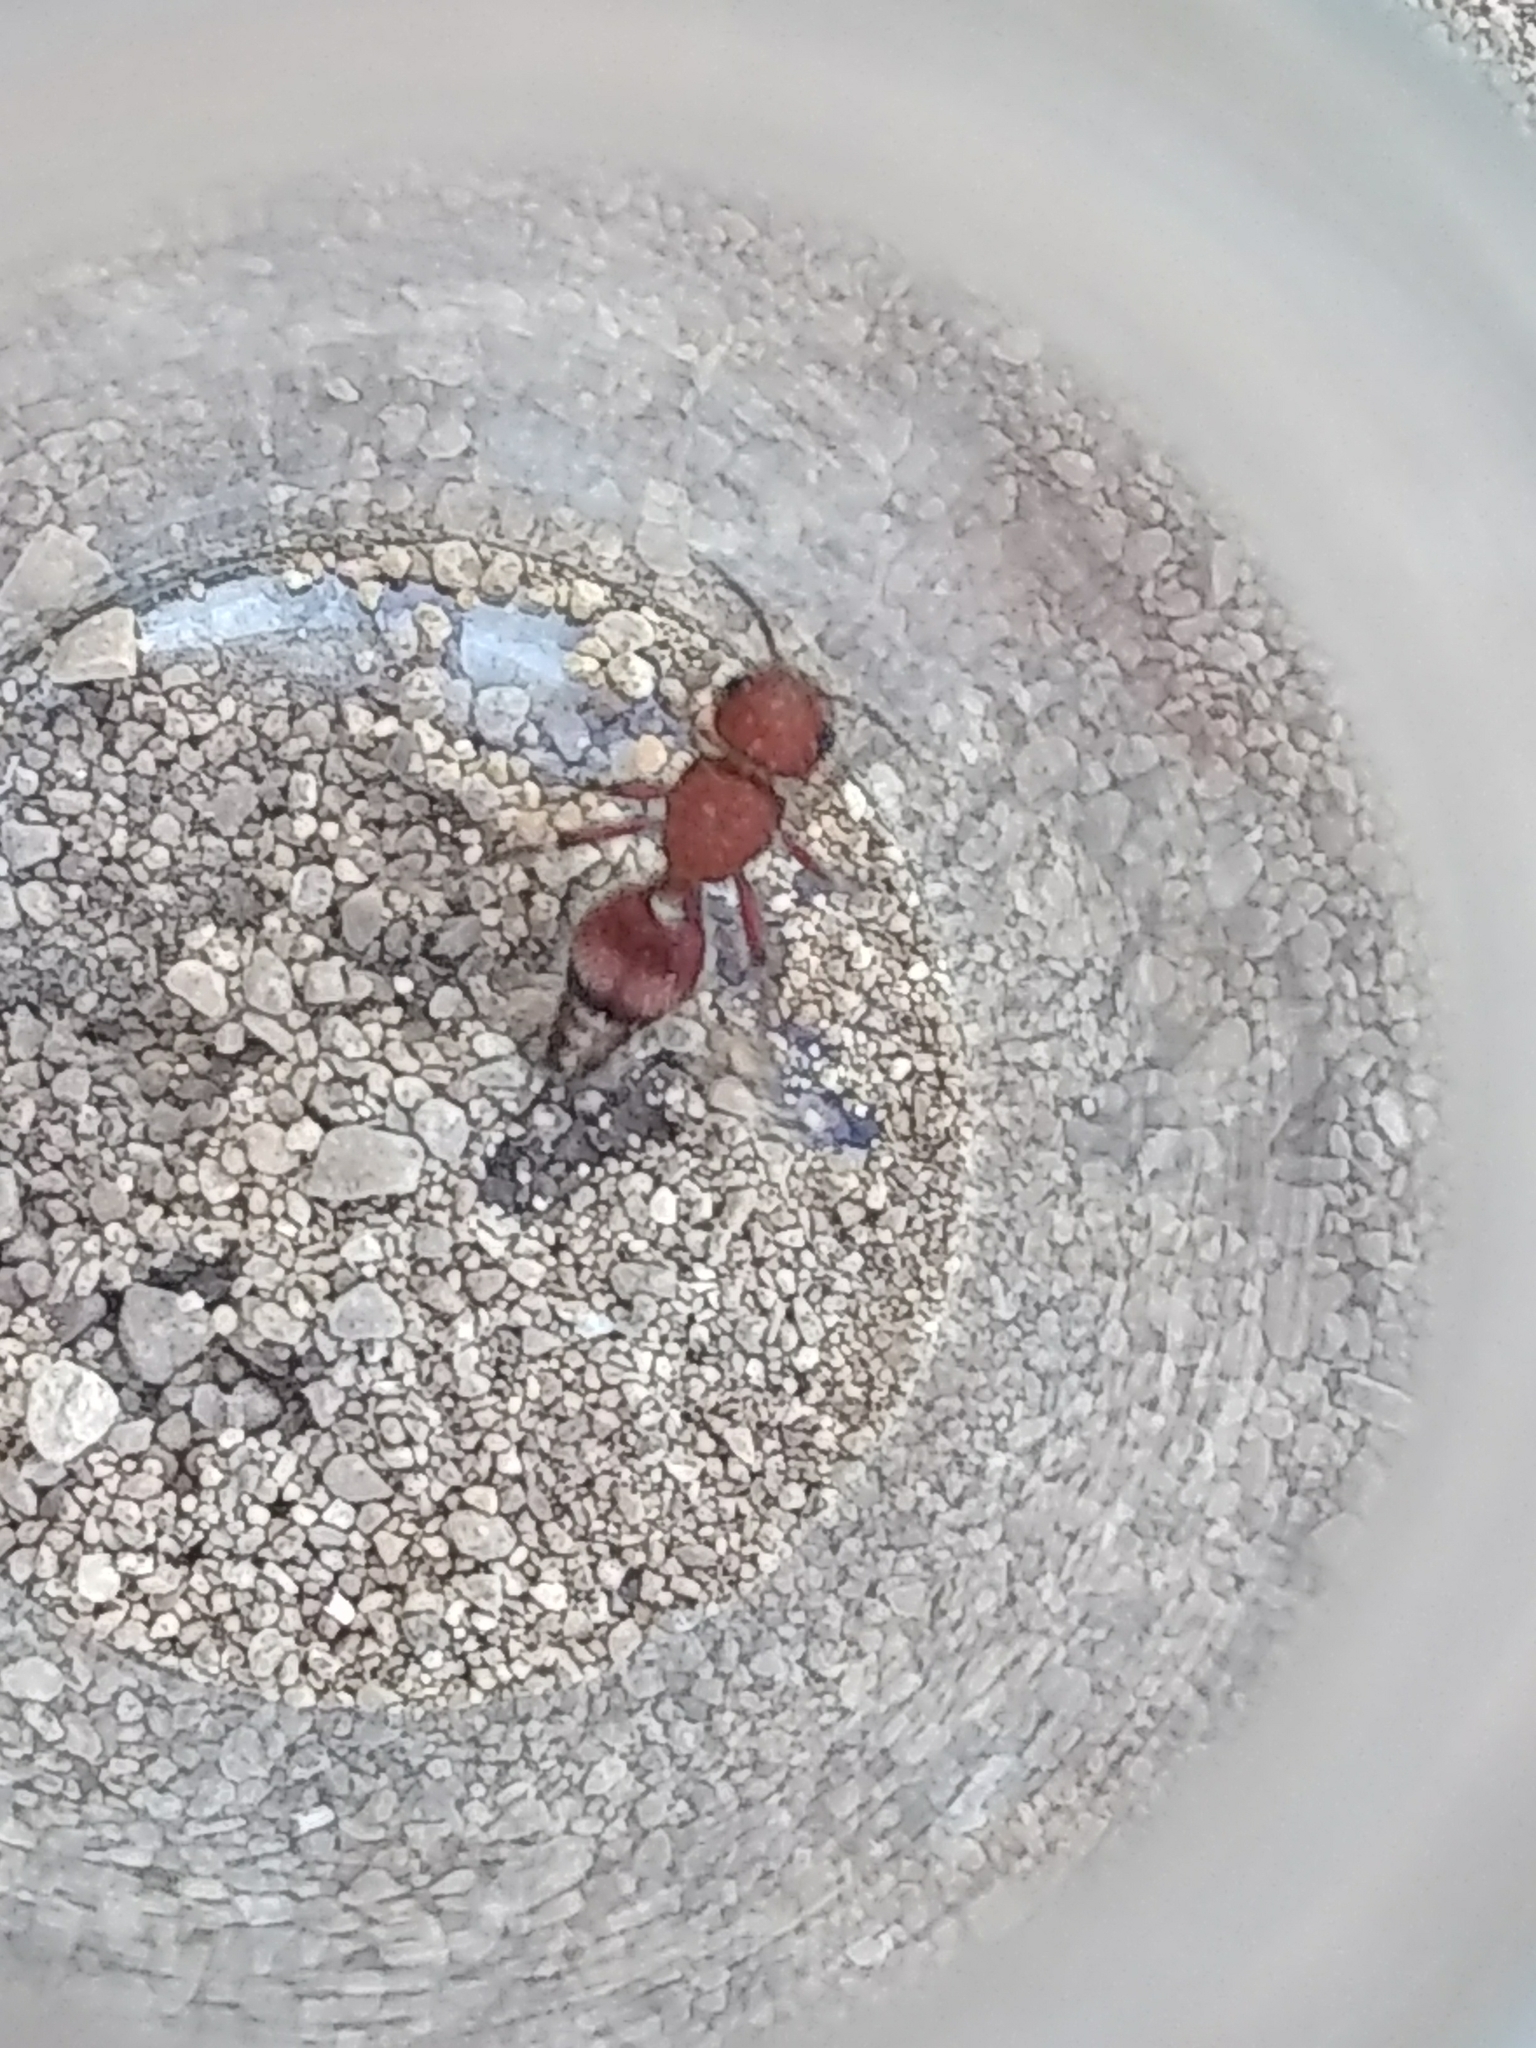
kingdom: Animalia
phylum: Arthropoda
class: Insecta
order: Hymenoptera
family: Mutillidae
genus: Dasymutilla
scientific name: Dasymutilla
